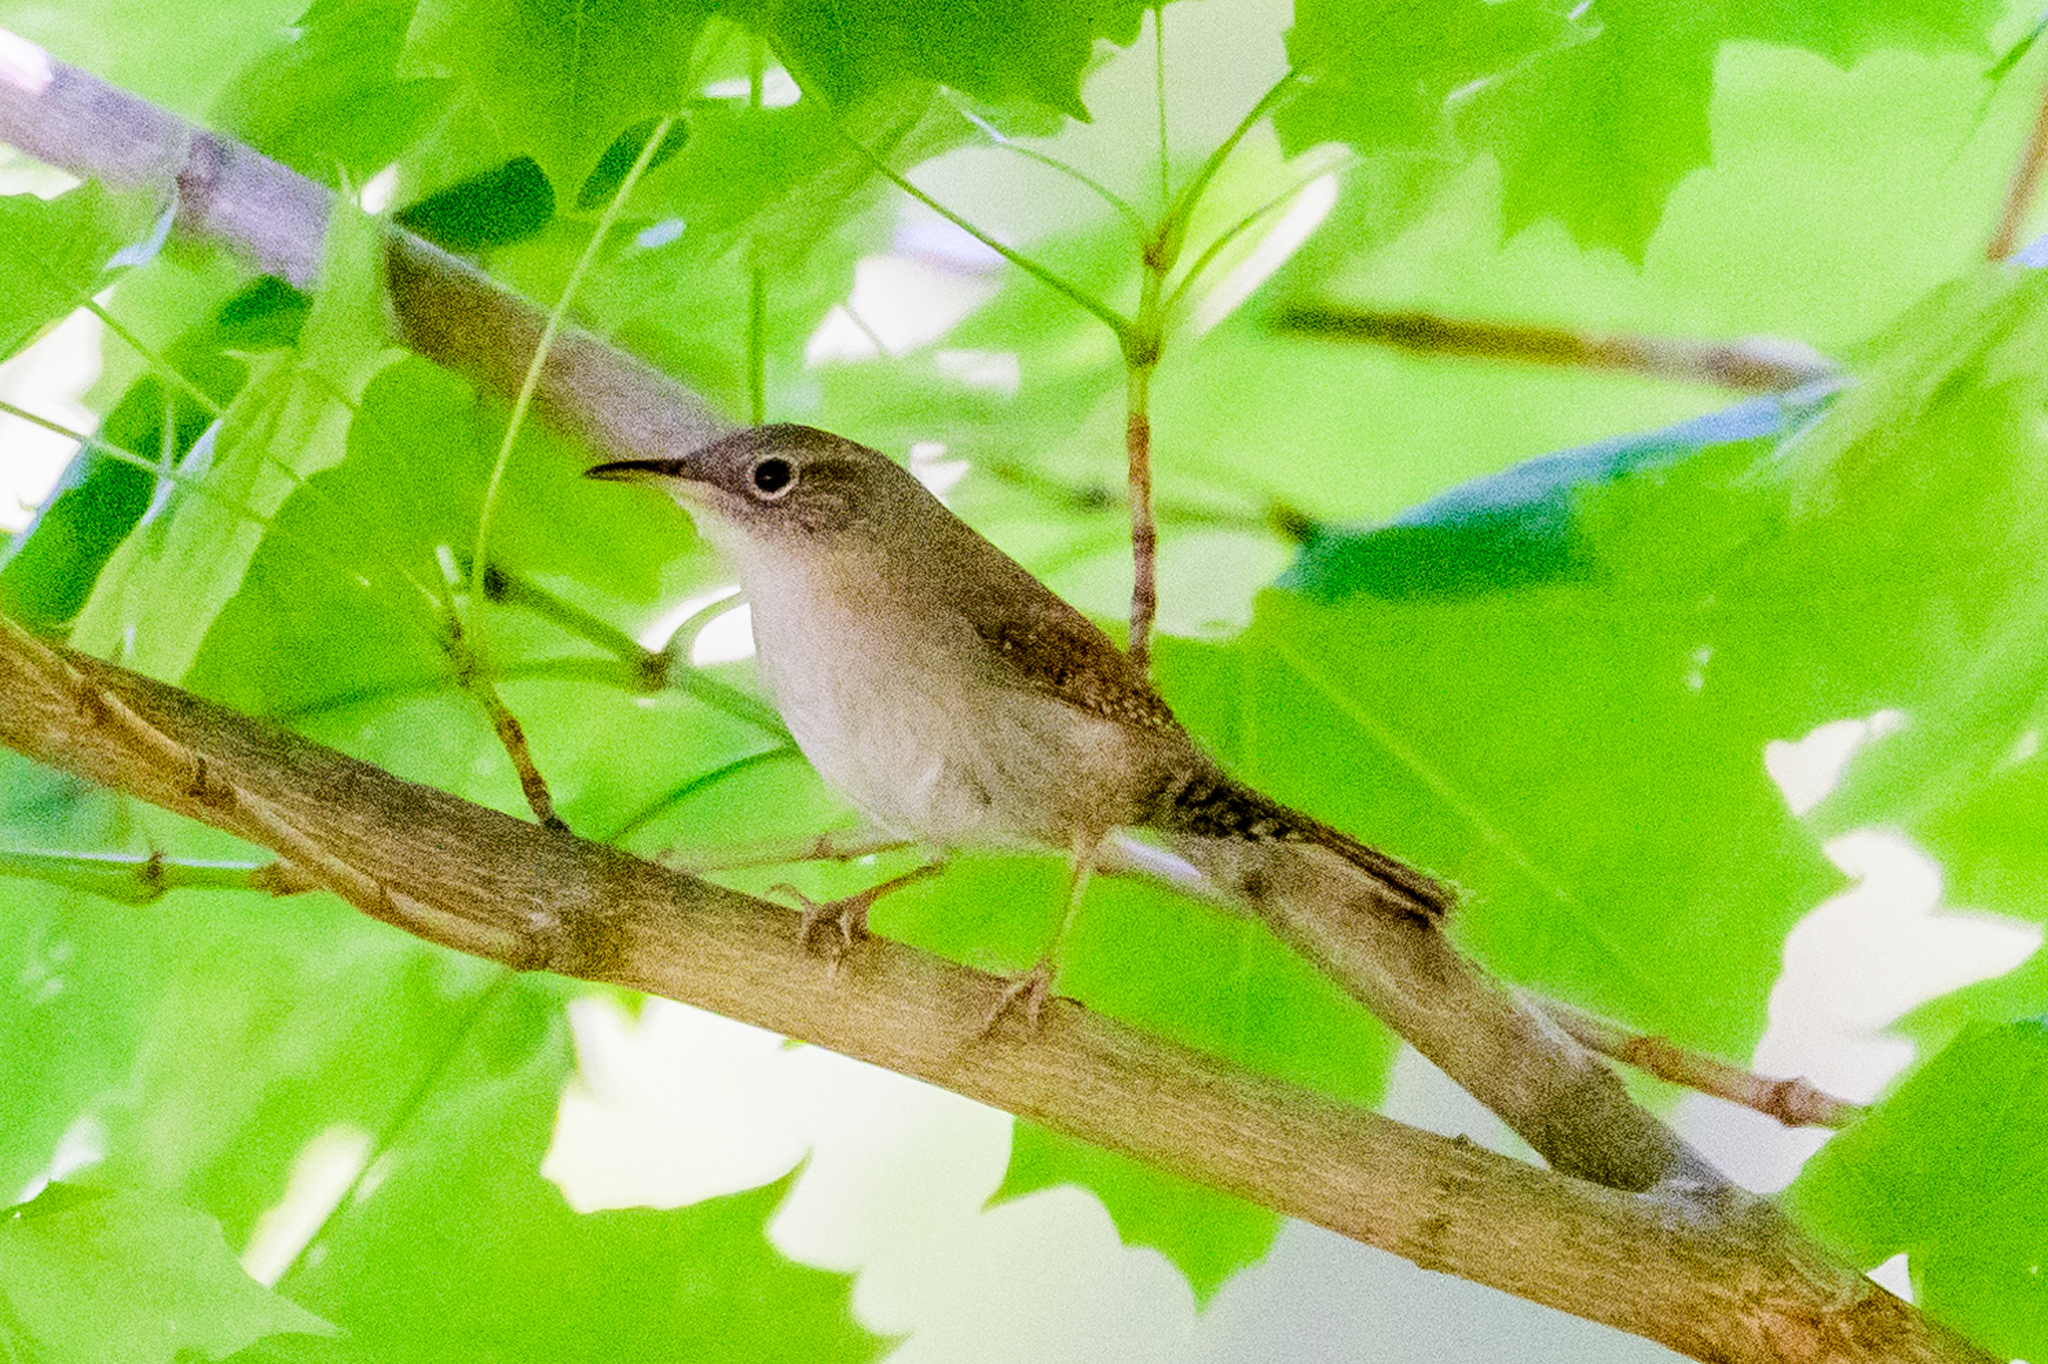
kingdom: Animalia
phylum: Chordata
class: Aves
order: Passeriformes
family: Troglodytidae
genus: Troglodytes
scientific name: Troglodytes aedon
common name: House wren
